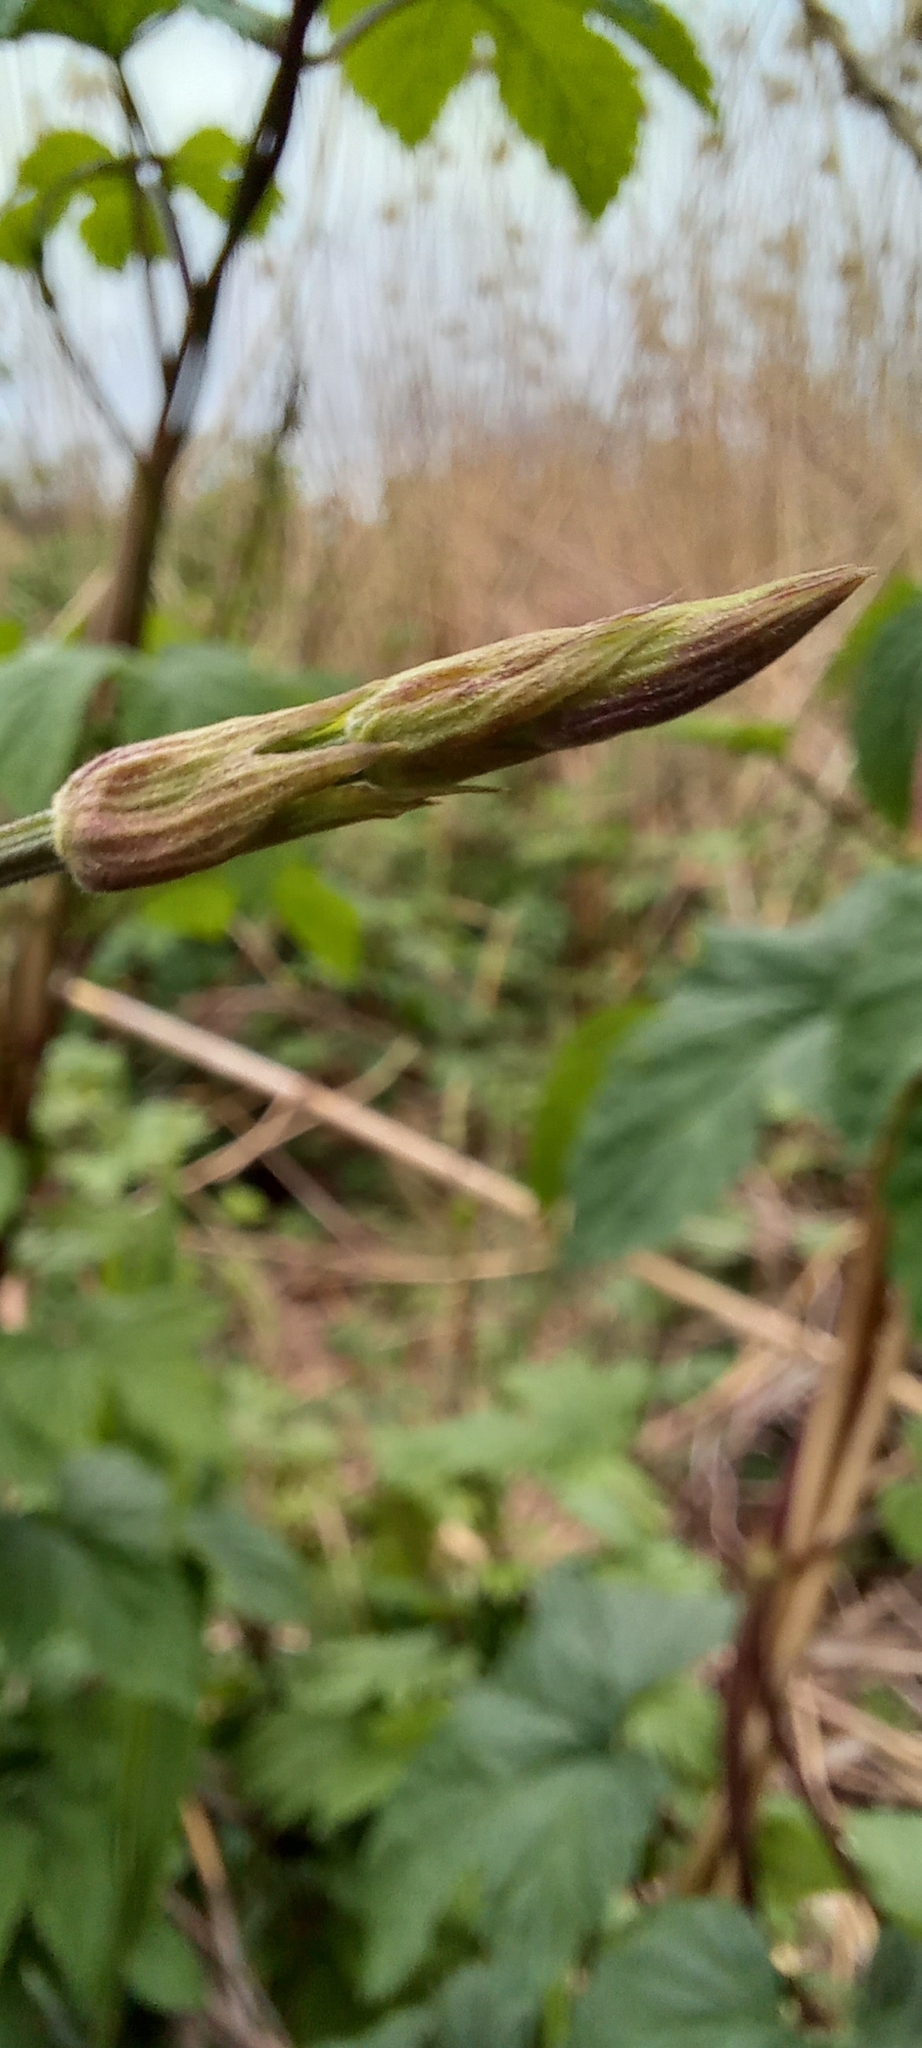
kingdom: Plantae
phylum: Tracheophyta
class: Magnoliopsida
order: Rosales
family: Cannabaceae
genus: Humulus
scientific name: Humulus lupulus
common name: Hop
